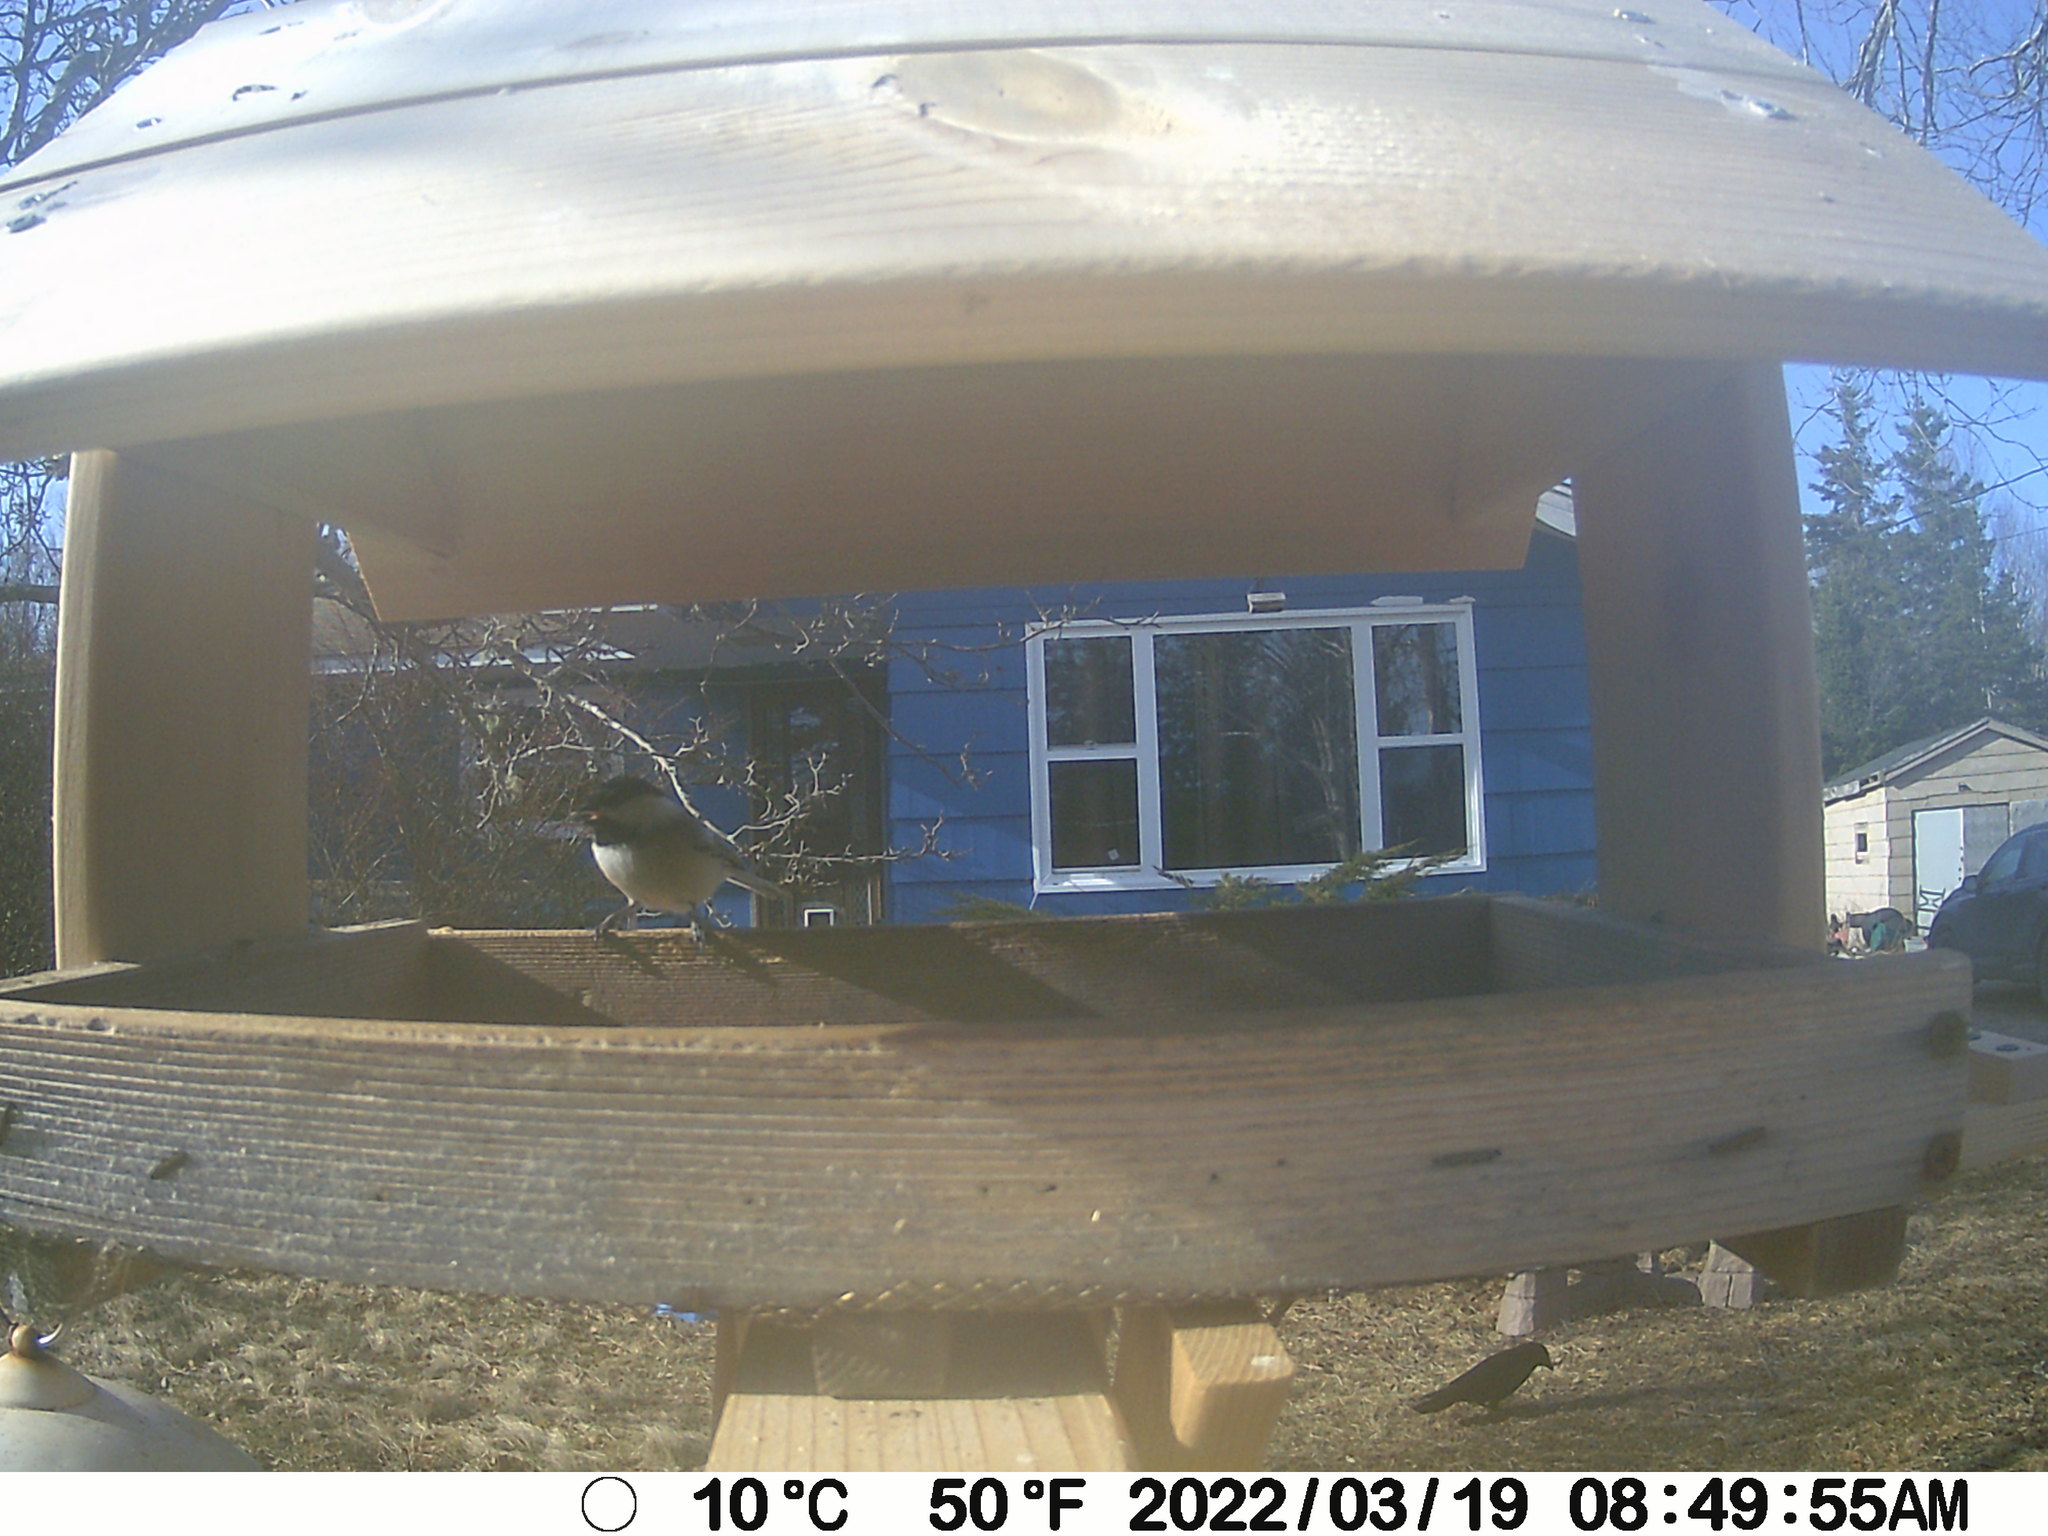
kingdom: Animalia
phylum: Chordata
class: Aves
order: Passeriformes
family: Corvidae
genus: Corvus
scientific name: Corvus brachyrhynchos
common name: American crow
